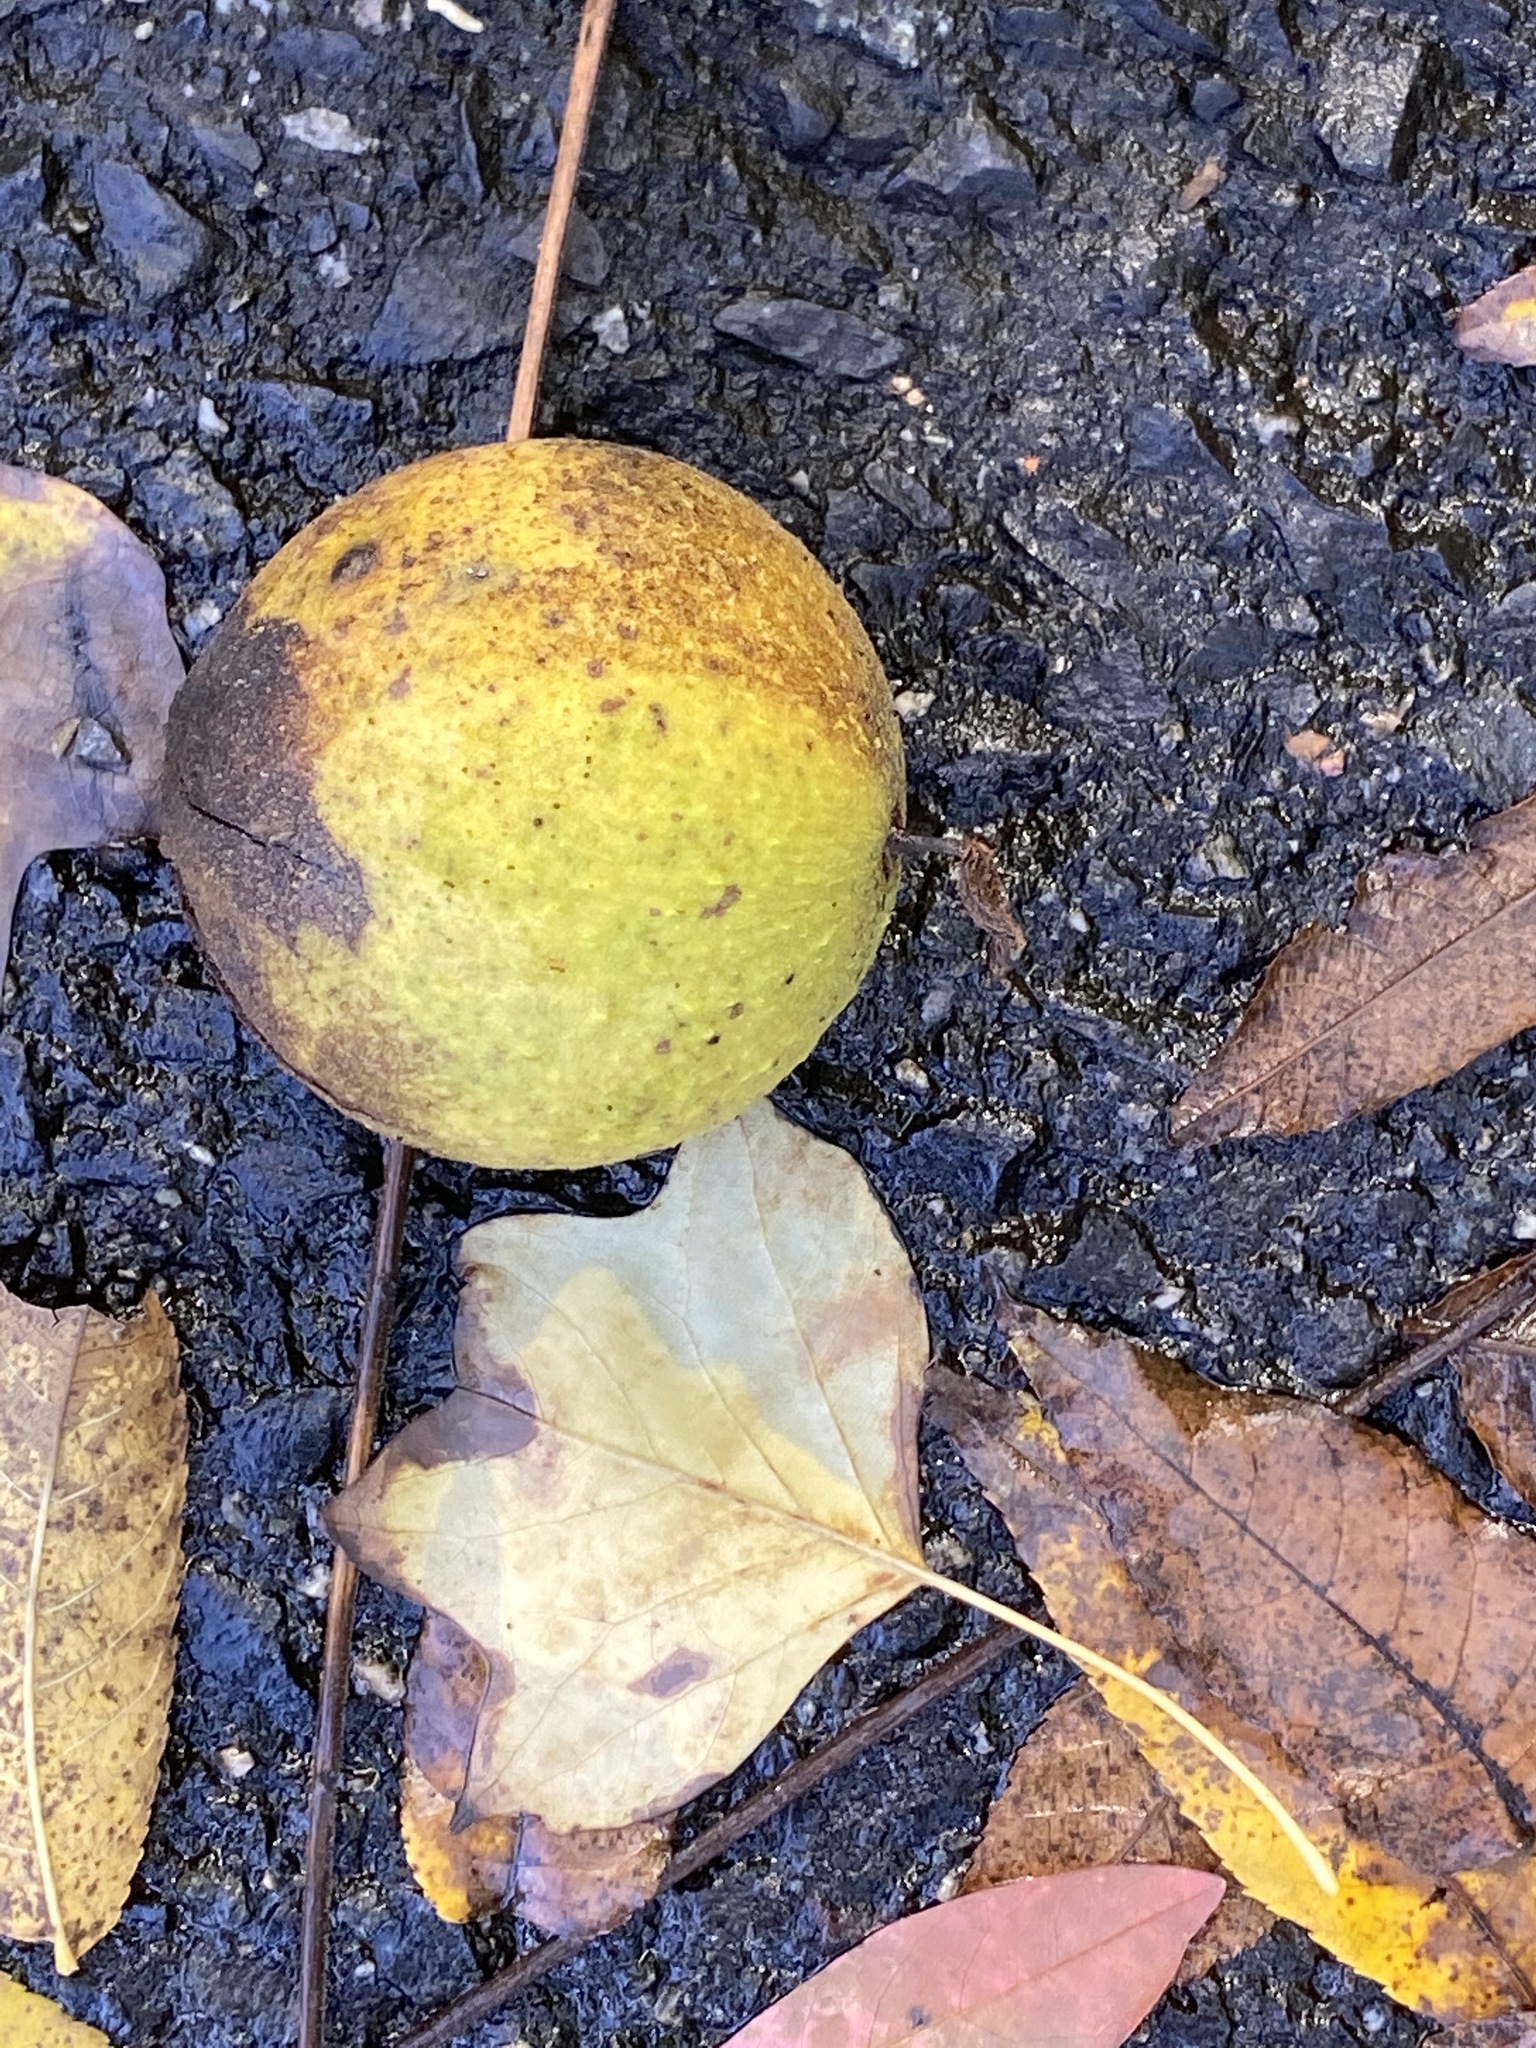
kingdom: Plantae
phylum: Tracheophyta
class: Magnoliopsida
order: Fagales
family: Juglandaceae
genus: Juglans
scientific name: Juglans nigra
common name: Black walnut
